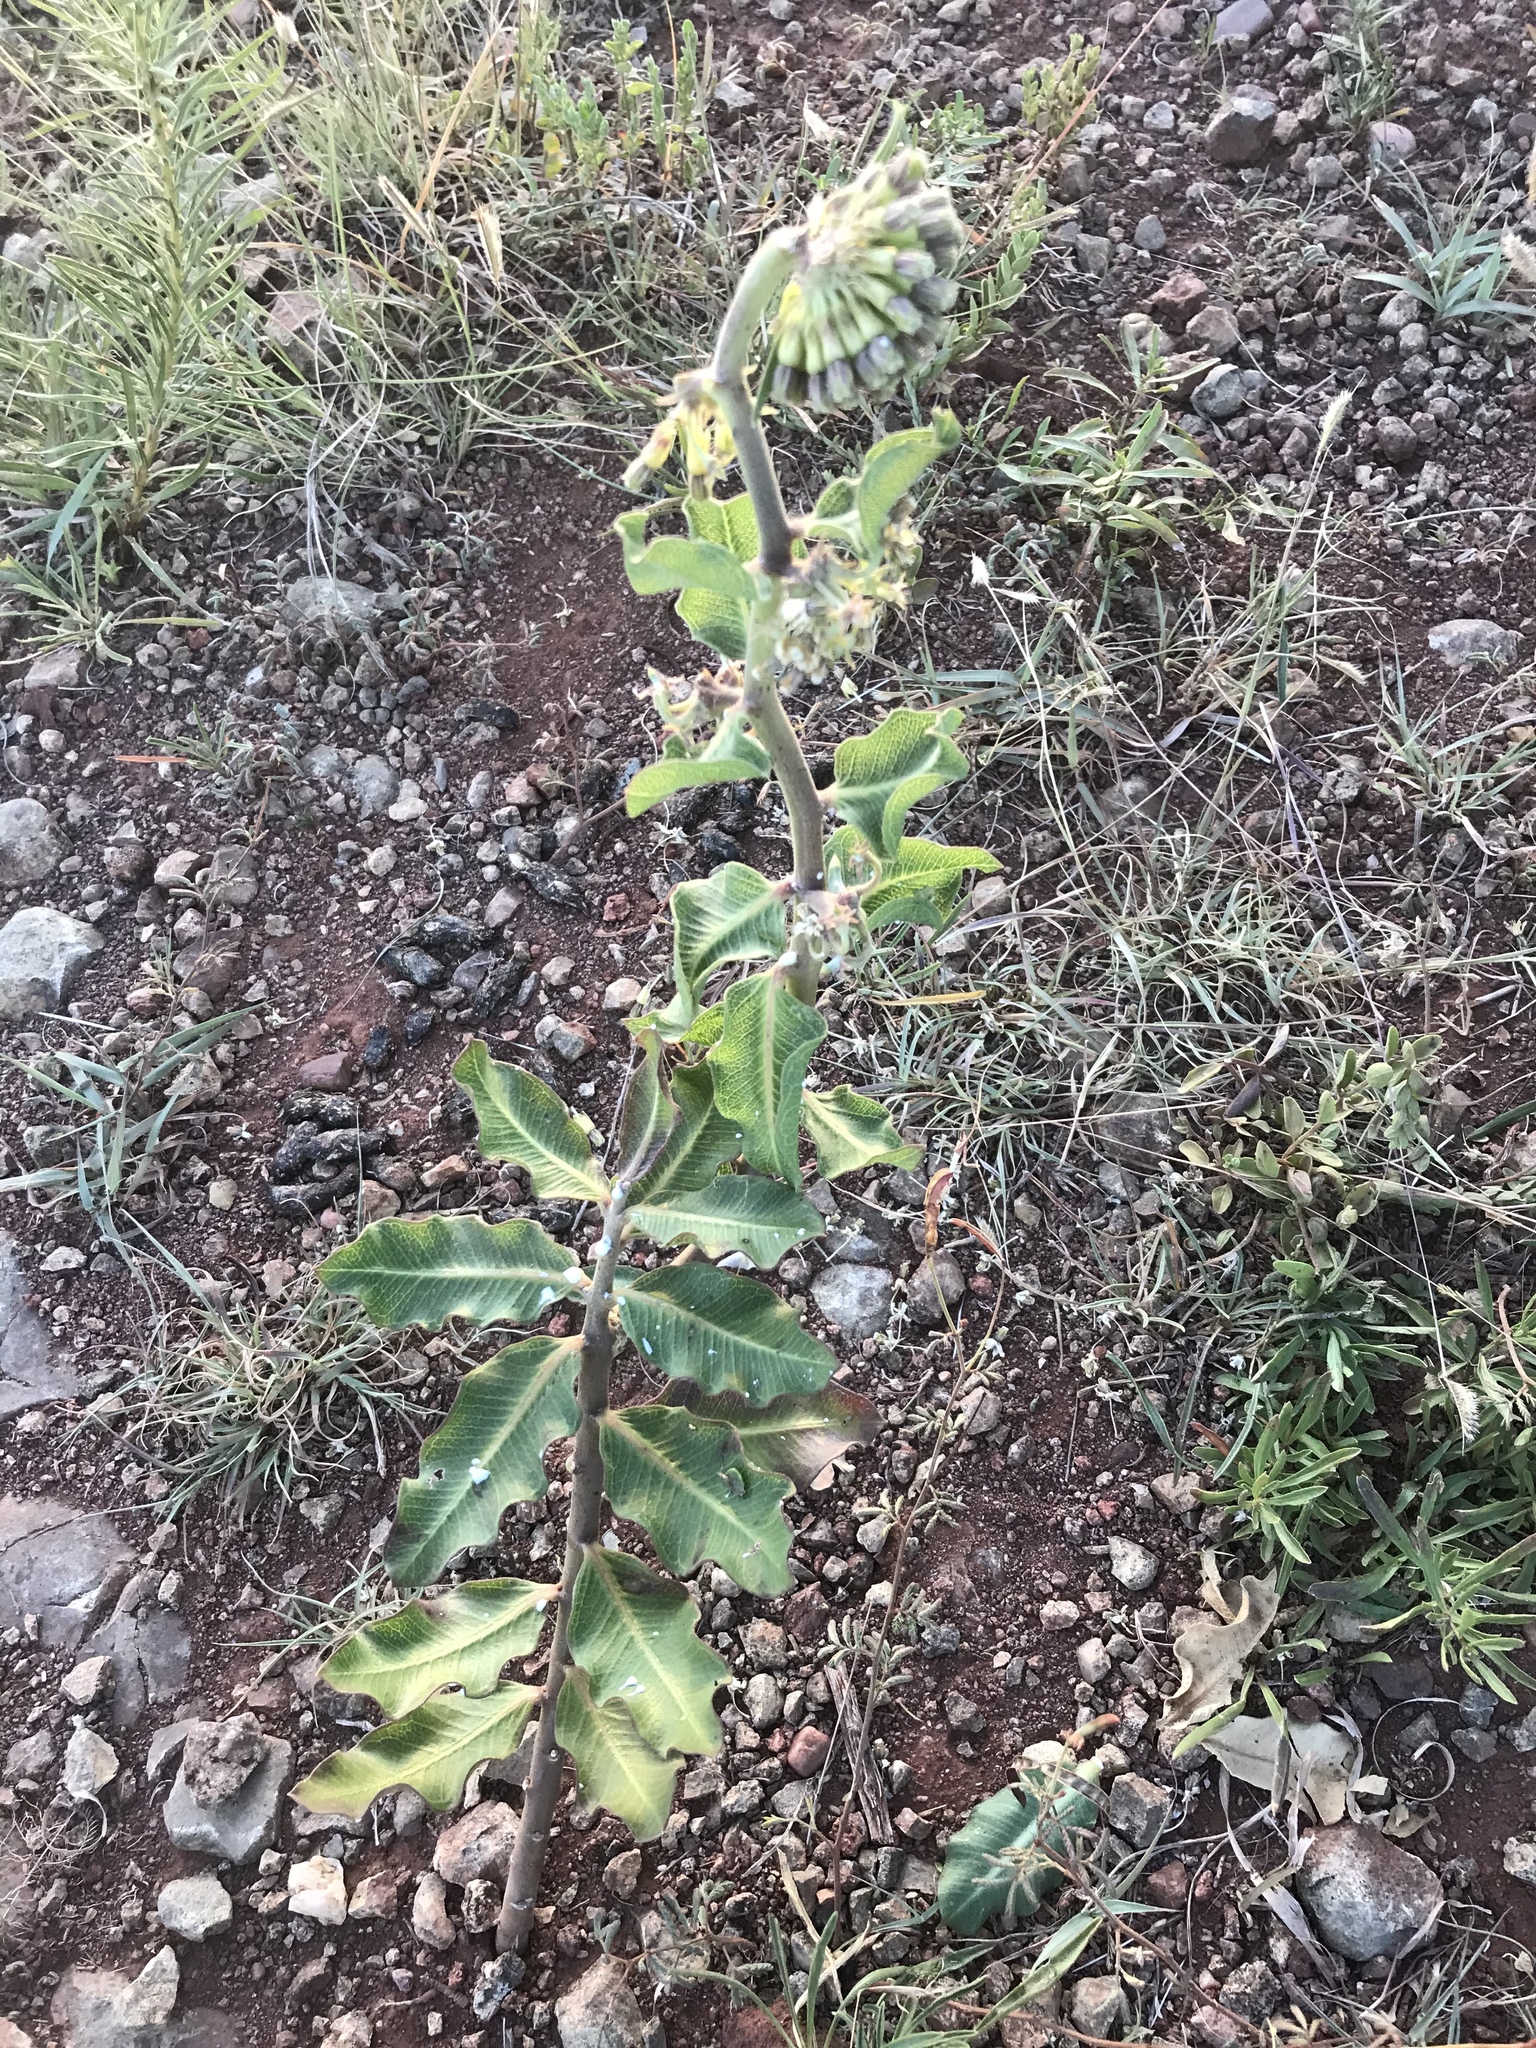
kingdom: Plantae
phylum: Tracheophyta
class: Magnoliopsida
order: Gentianales
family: Apocynaceae
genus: Asclepias
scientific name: Asclepias viridiflora
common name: Green comet milkweed
